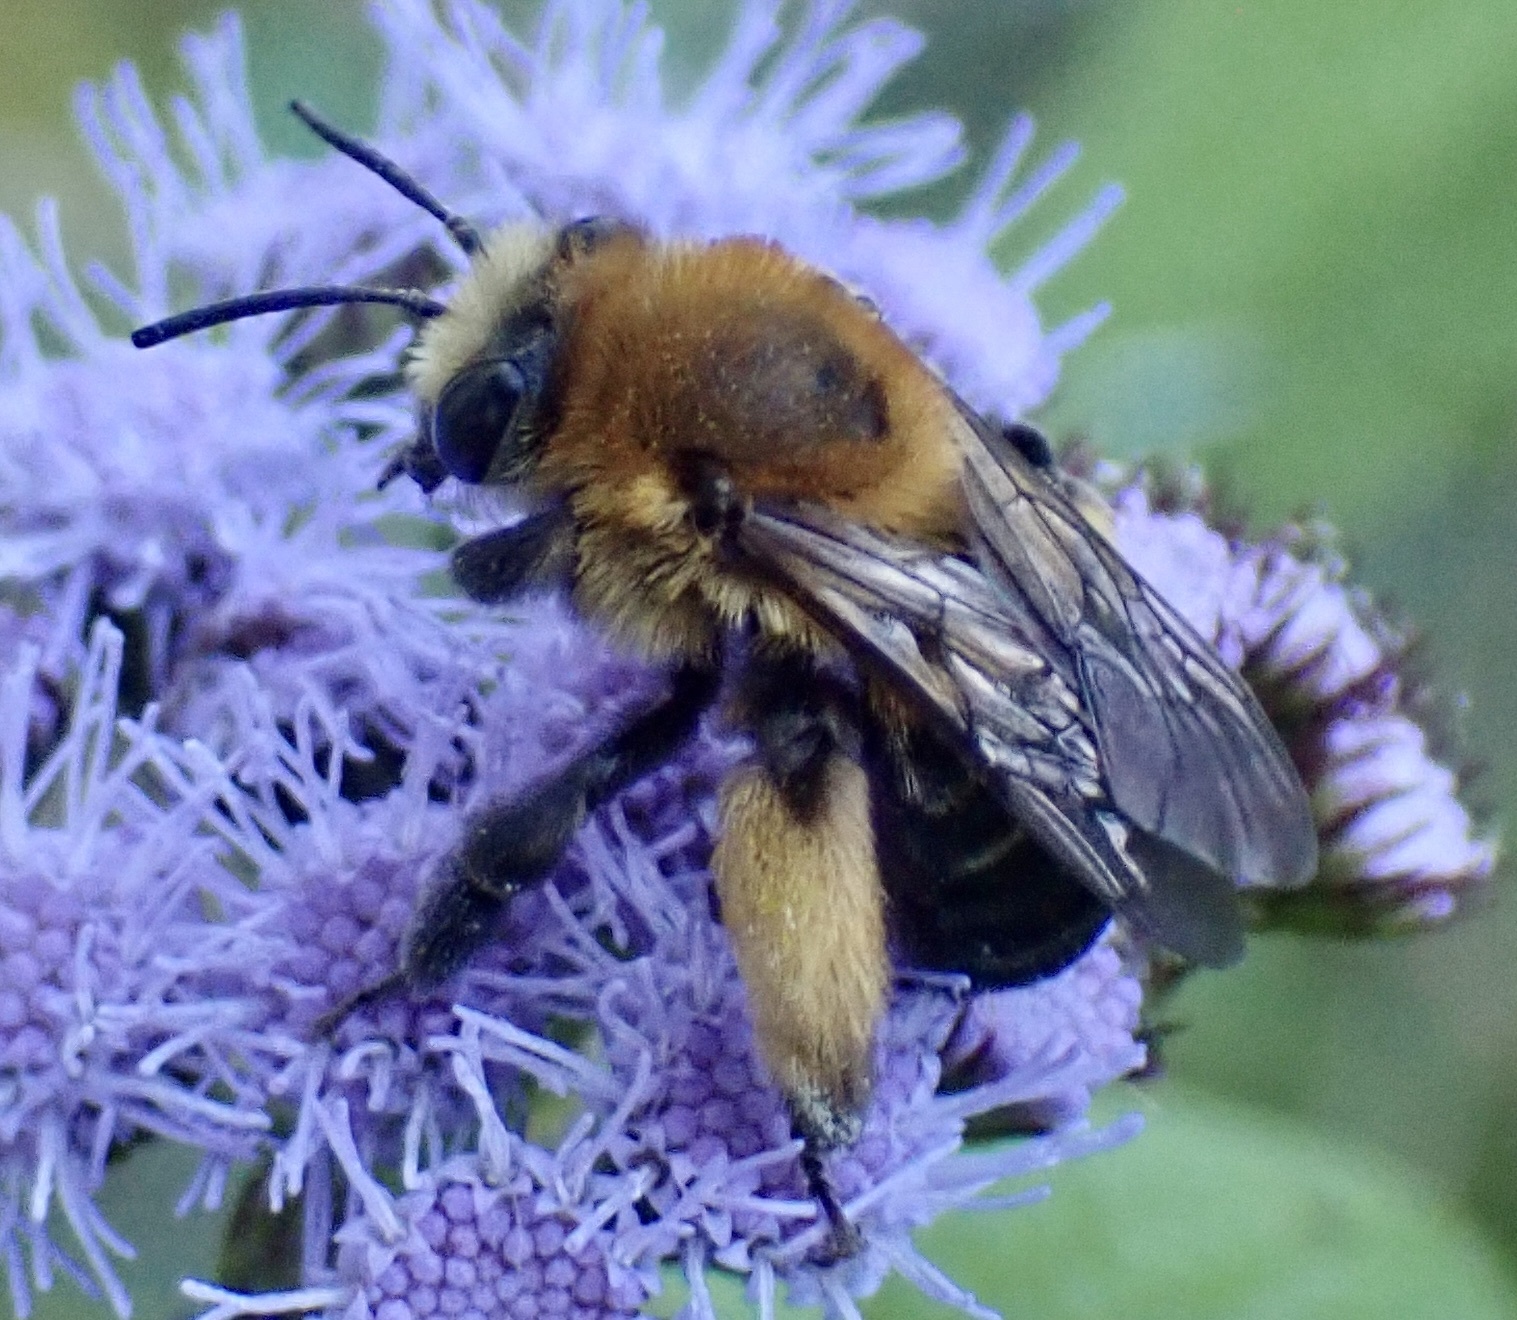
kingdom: Animalia
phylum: Arthropoda
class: Insecta
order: Hymenoptera
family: Apidae
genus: Melissodes
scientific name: Melissodes dentiventris
